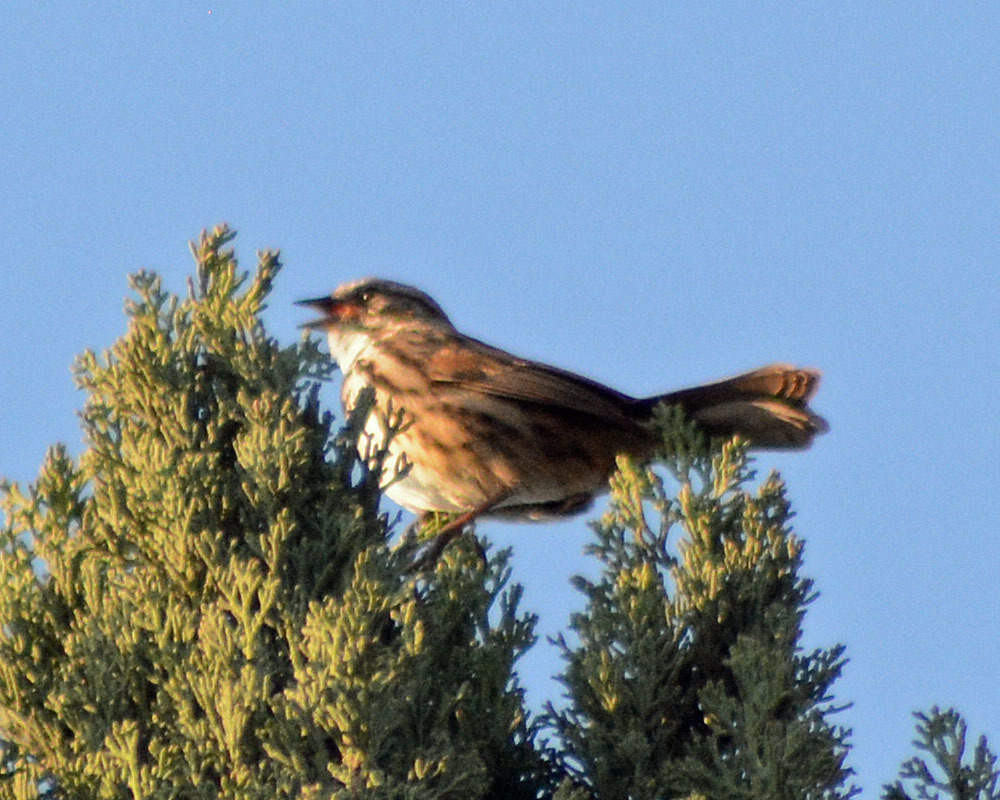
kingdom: Animalia
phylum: Chordata
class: Aves
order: Passeriformes
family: Passerellidae
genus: Melospiza
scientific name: Melospiza melodia
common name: Song sparrow
